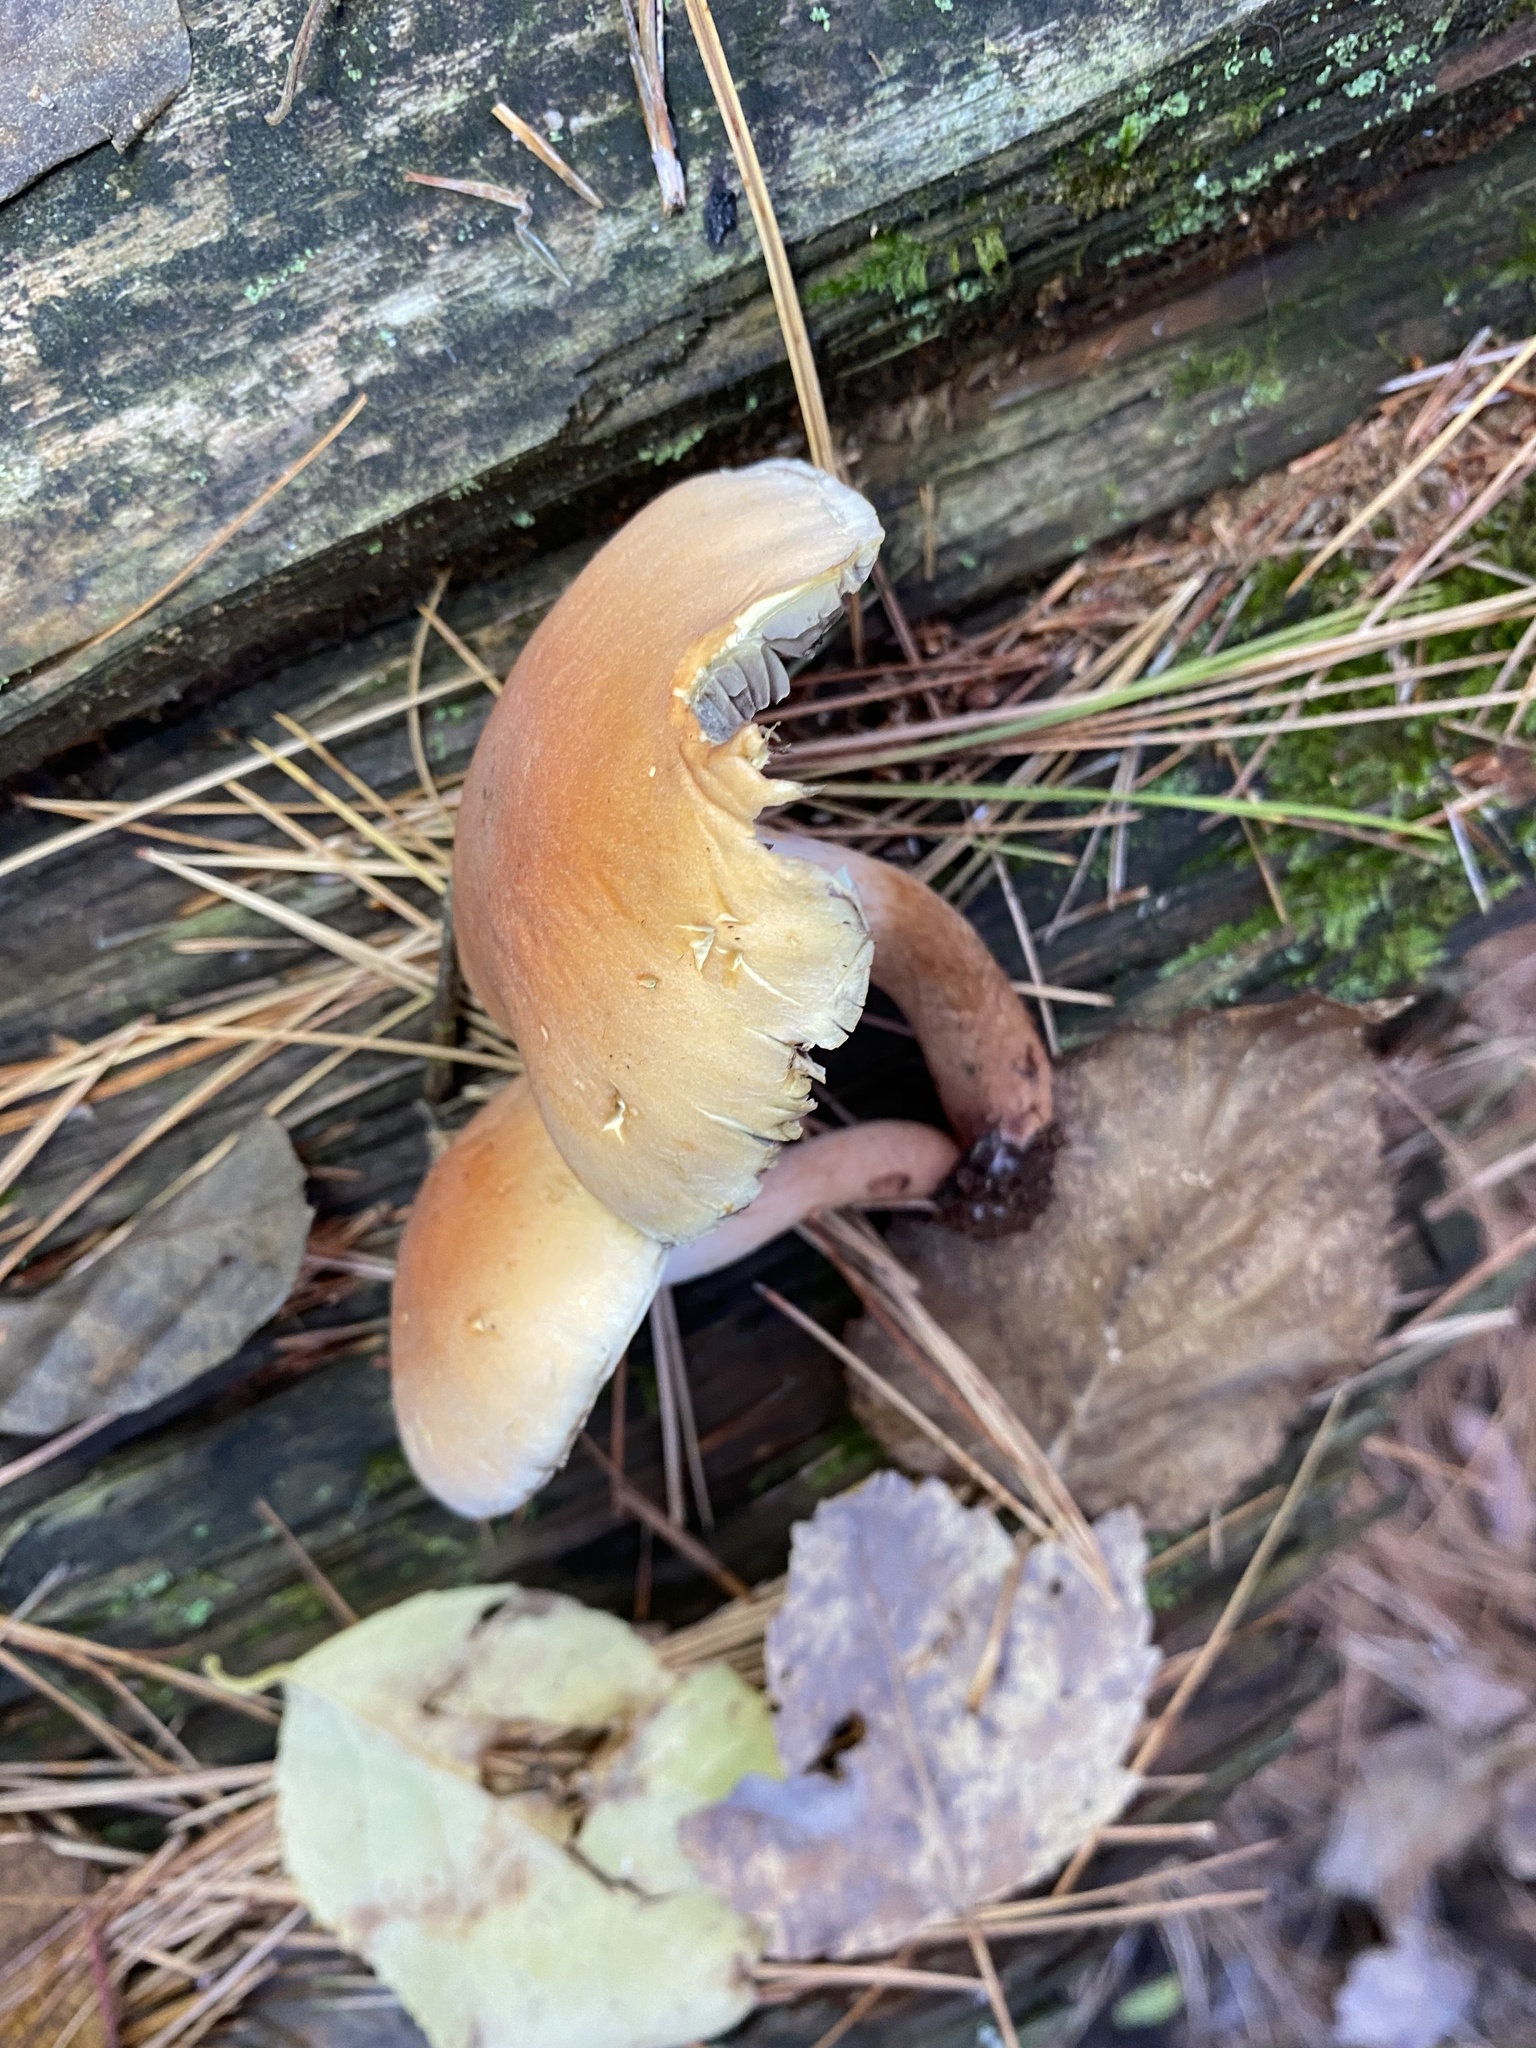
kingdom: Fungi
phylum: Basidiomycota
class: Agaricomycetes
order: Agaricales
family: Strophariaceae
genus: Hypholoma
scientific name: Hypholoma lateritium
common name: Brick caps
